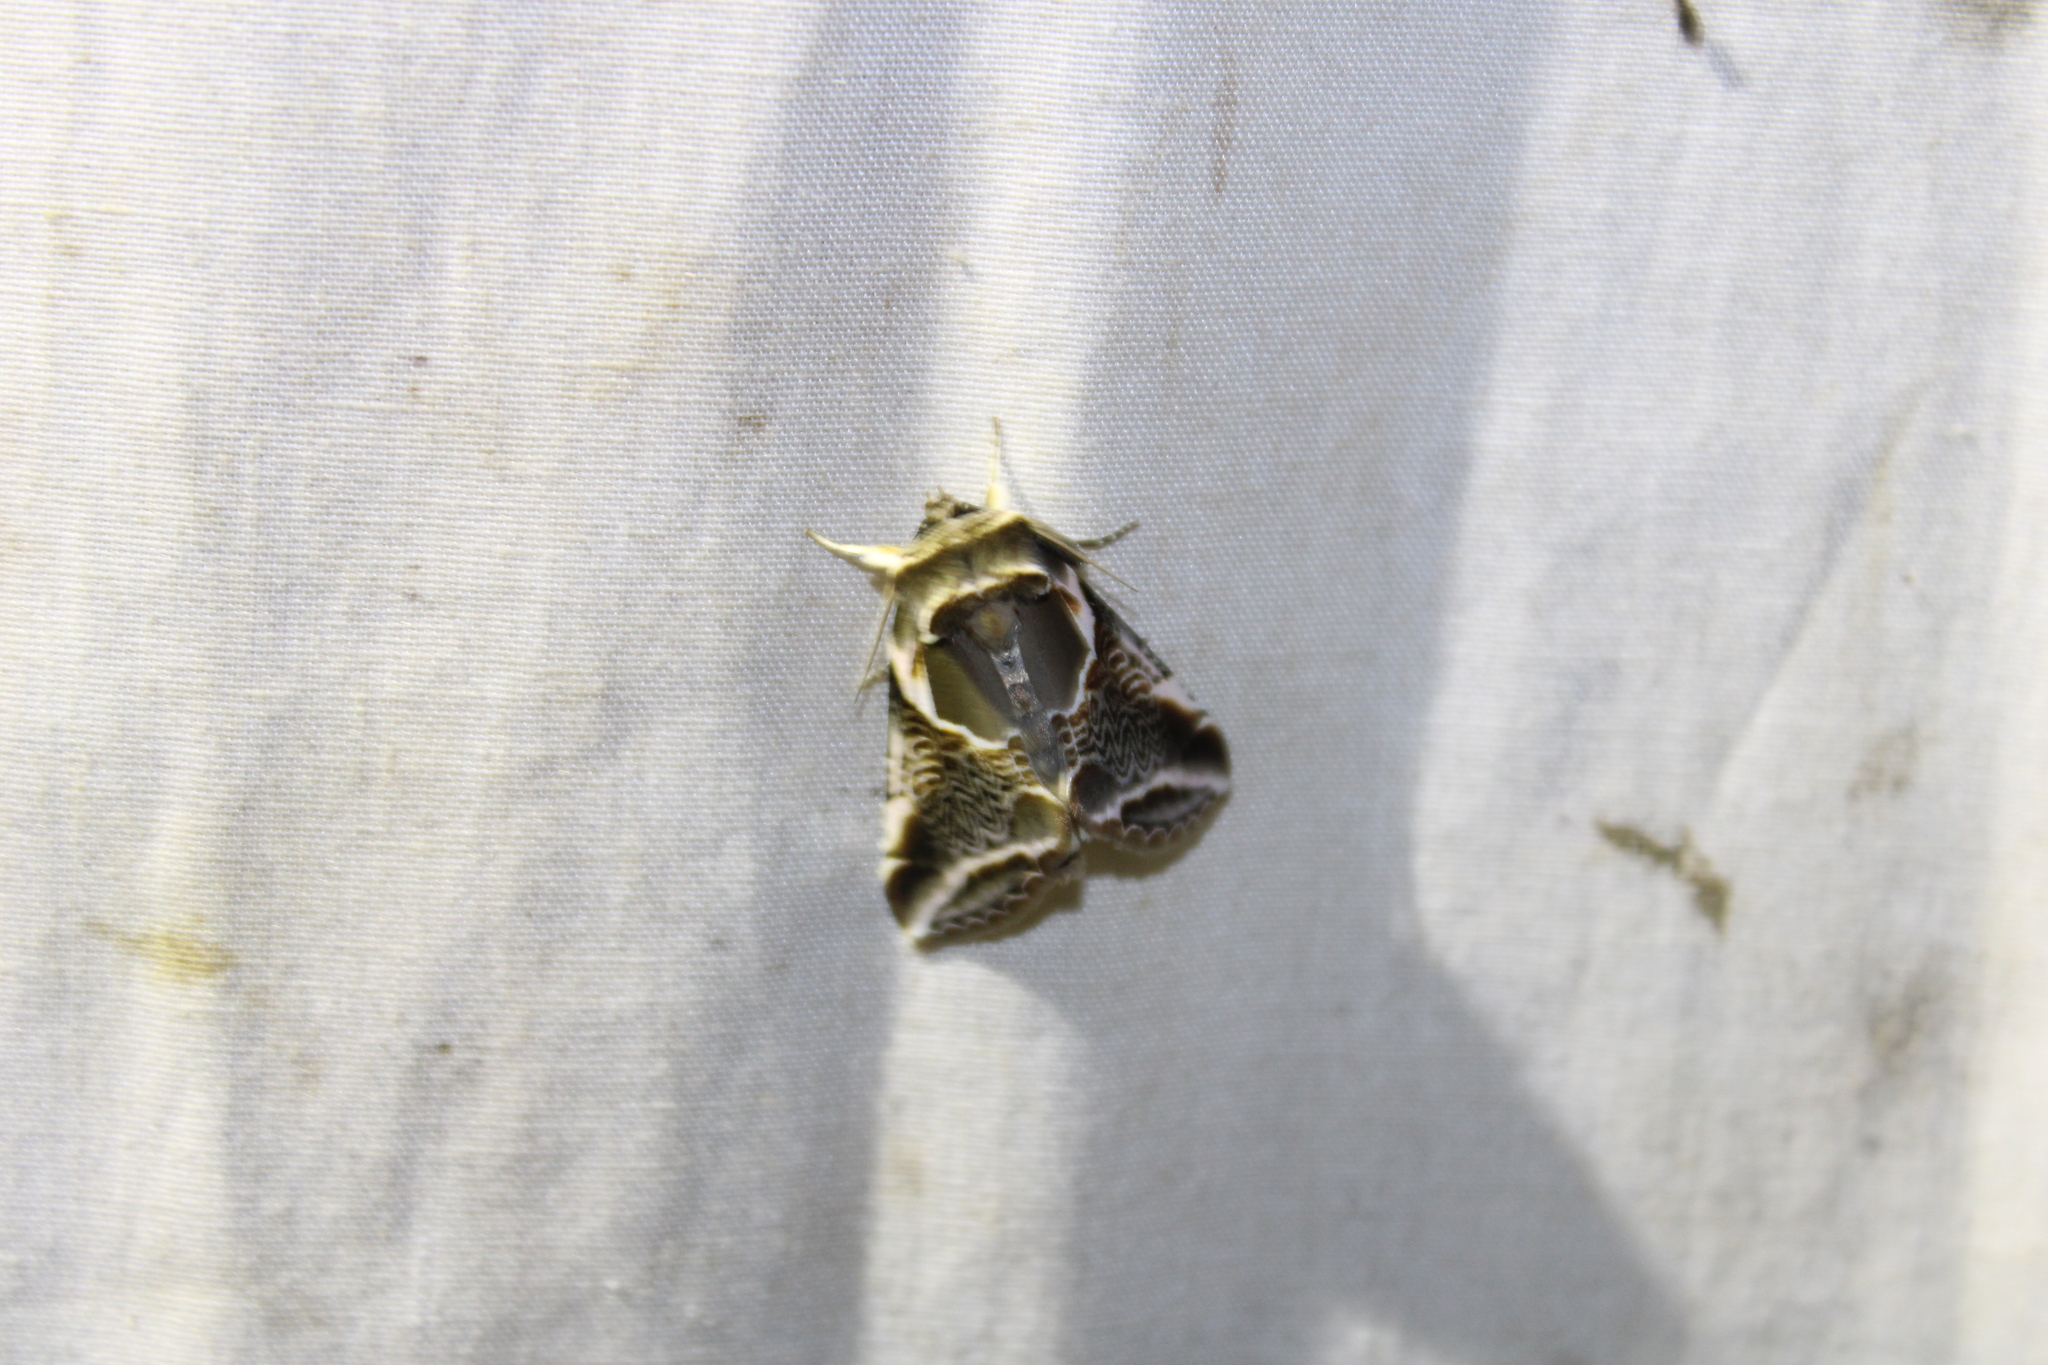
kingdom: Animalia
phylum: Arthropoda
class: Insecta
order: Lepidoptera
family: Drepanidae
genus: Habrosyne
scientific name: Habrosyne scripta
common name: Lettered habrosyne moth
